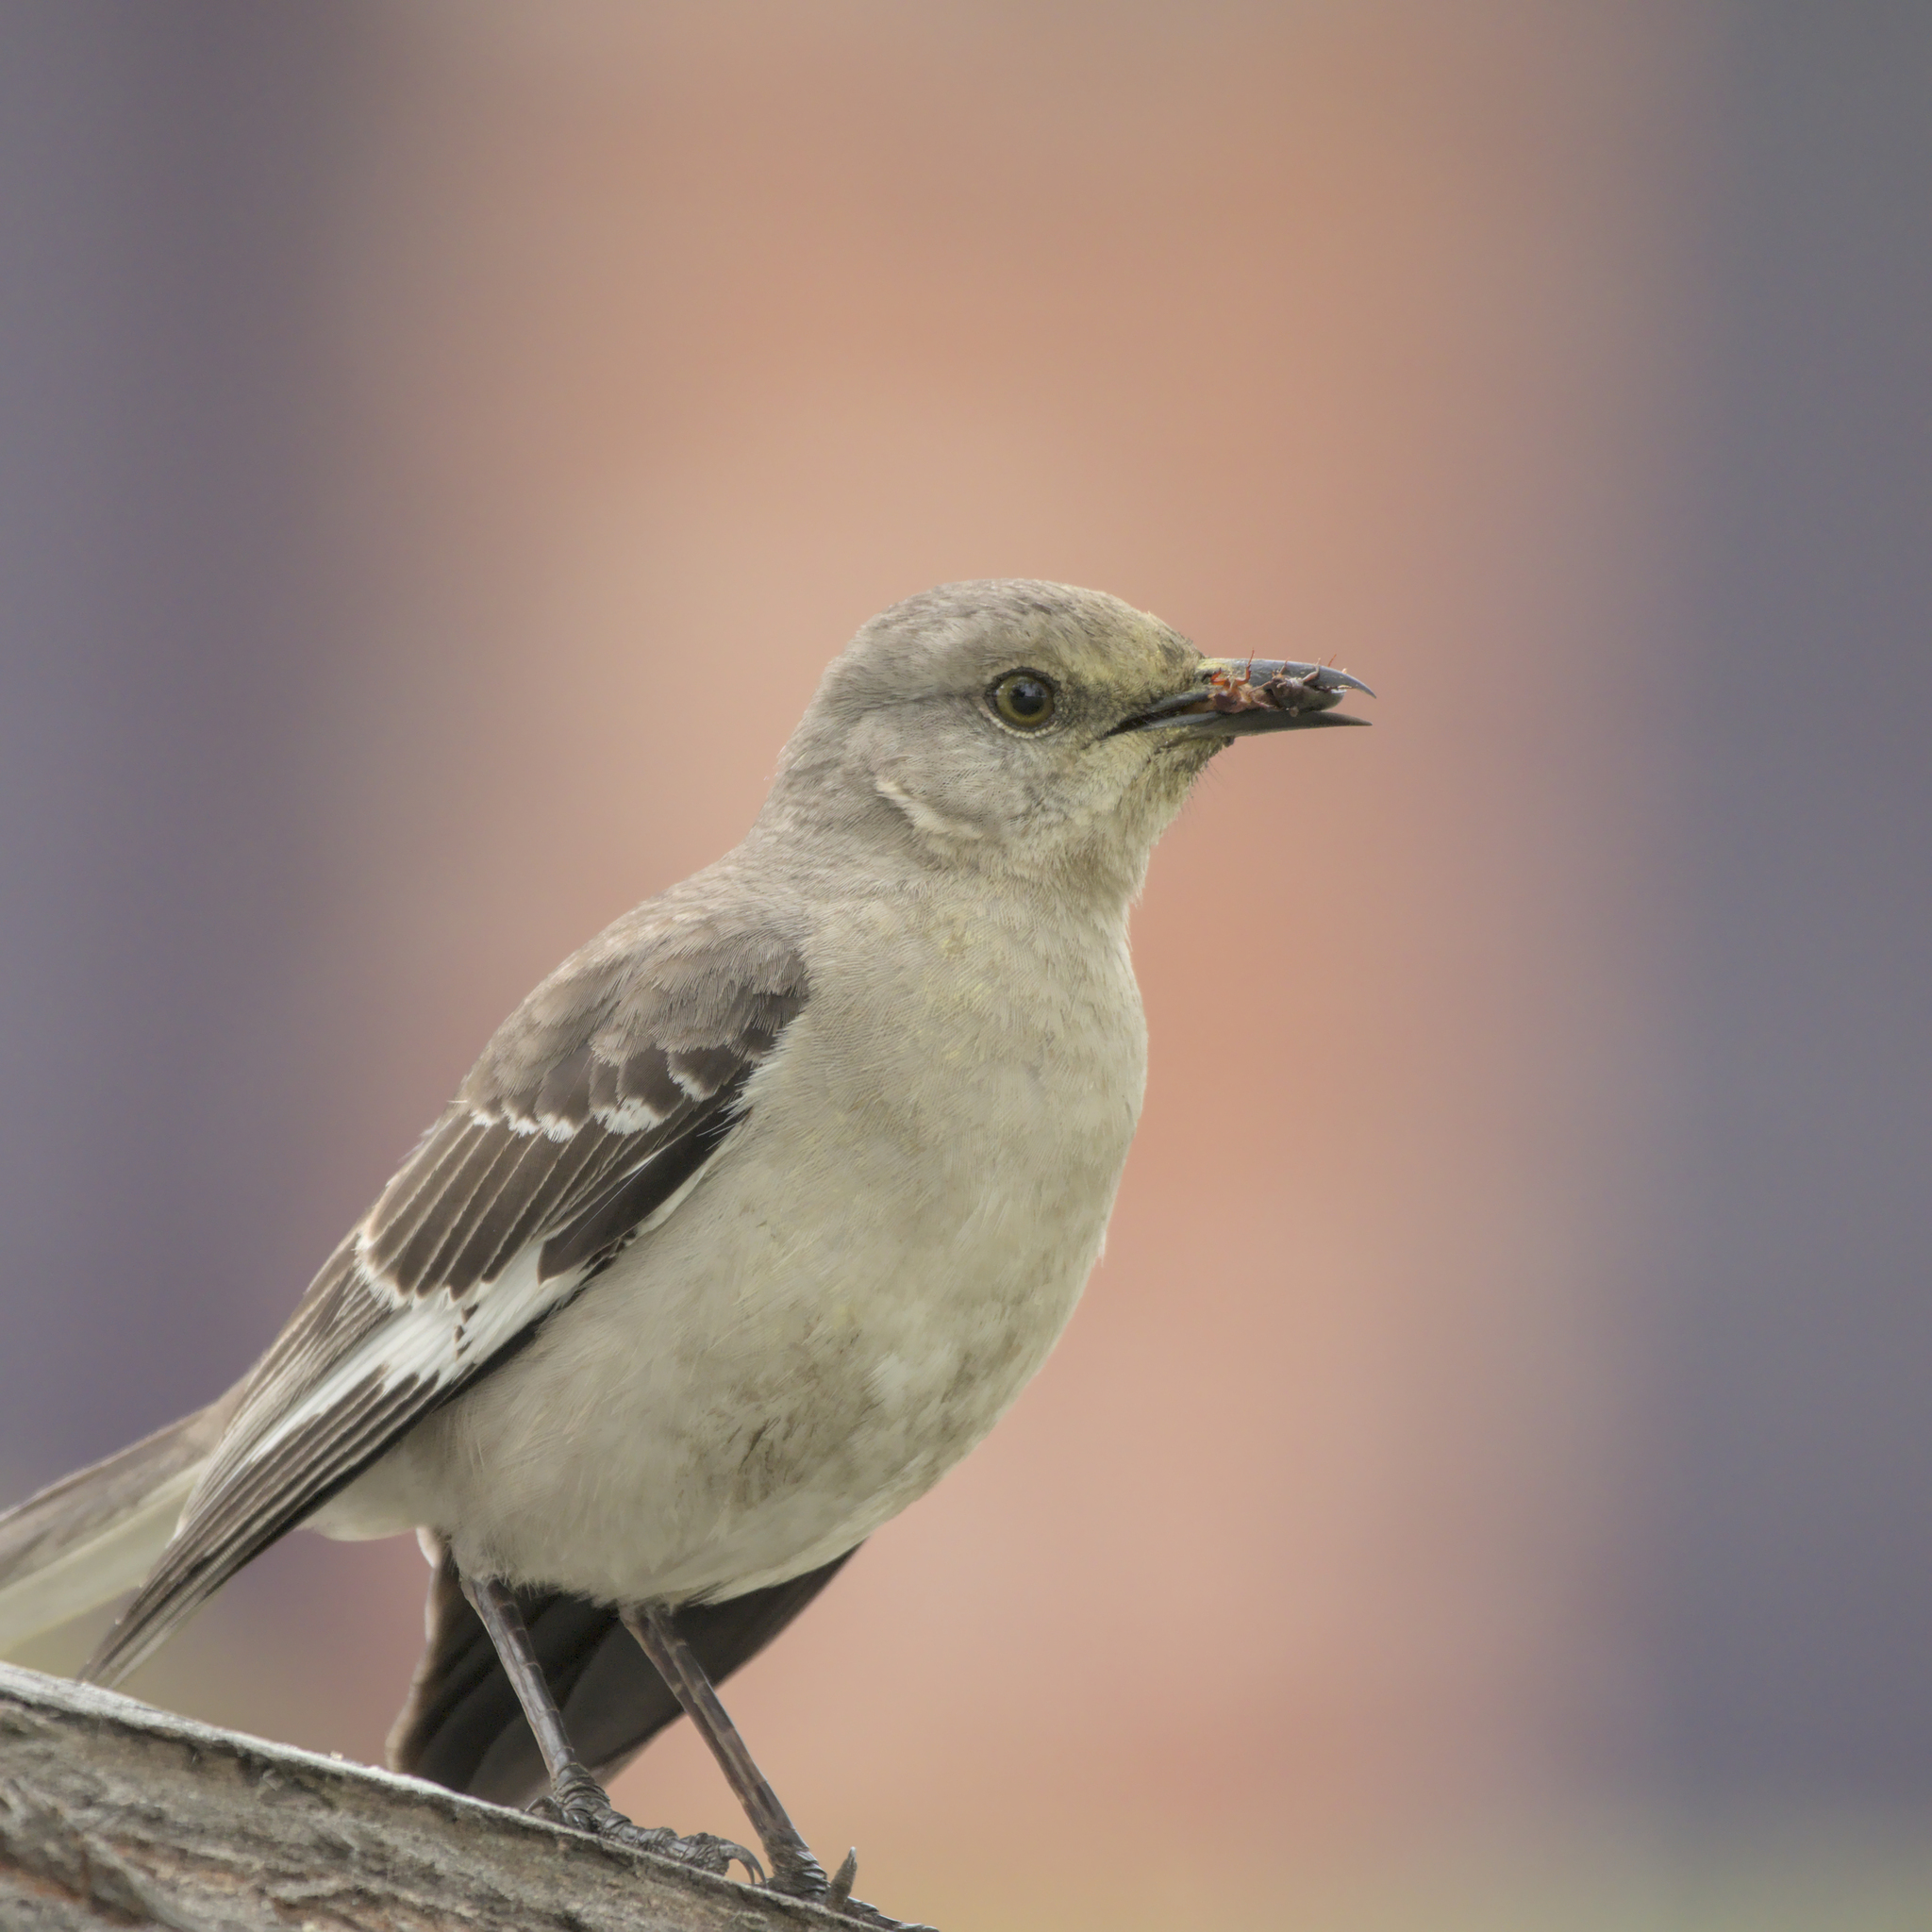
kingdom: Animalia
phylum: Chordata
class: Aves
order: Passeriformes
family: Mimidae
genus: Mimus
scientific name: Mimus polyglottos
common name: Northern mockingbird
